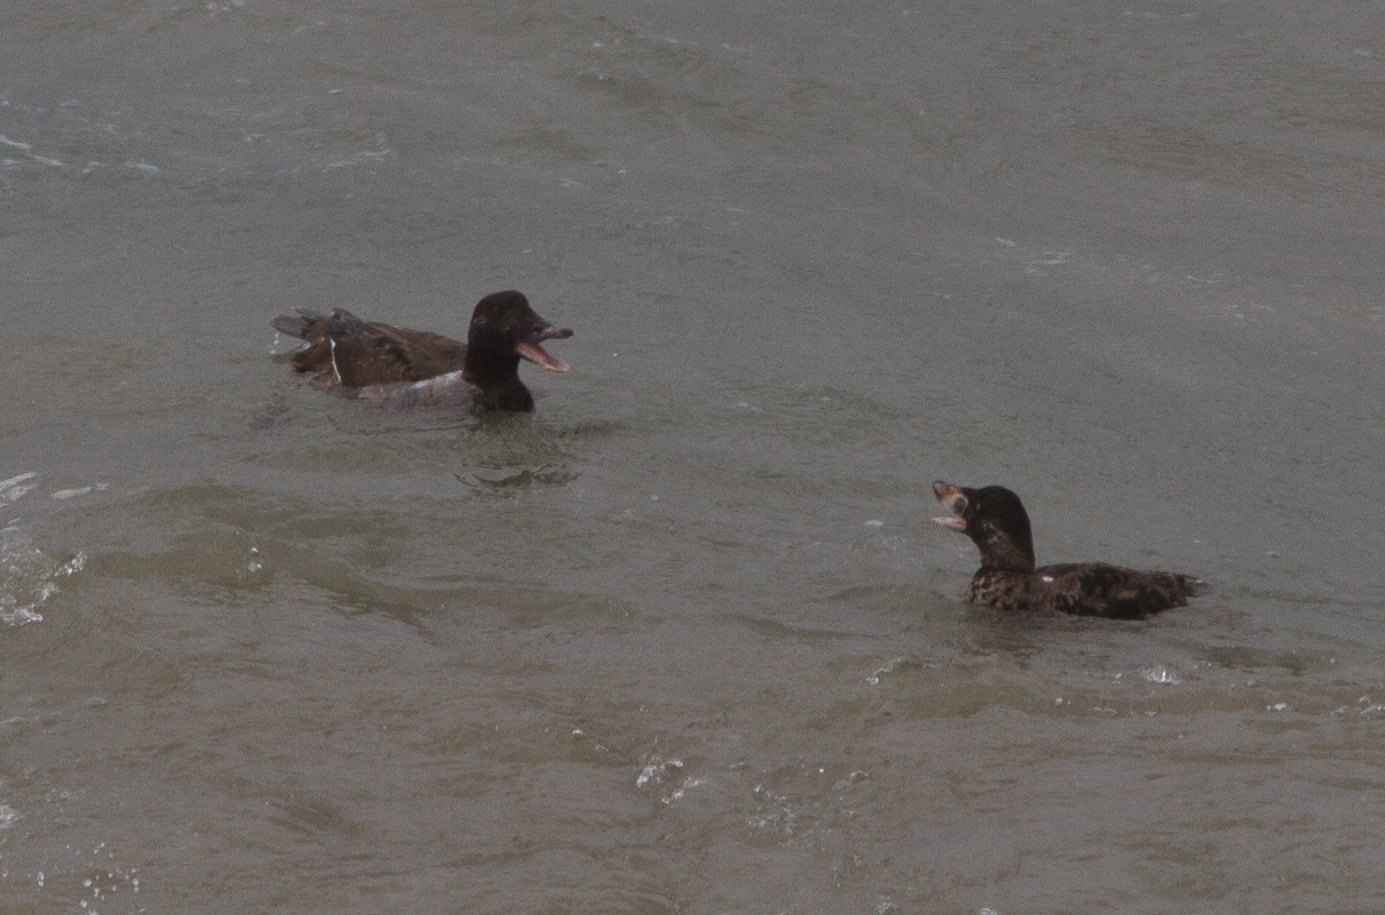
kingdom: Animalia
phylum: Chordata
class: Aves
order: Anseriformes
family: Anatidae
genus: Melanitta
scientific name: Melanitta deglandi
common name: White-winged scoter
